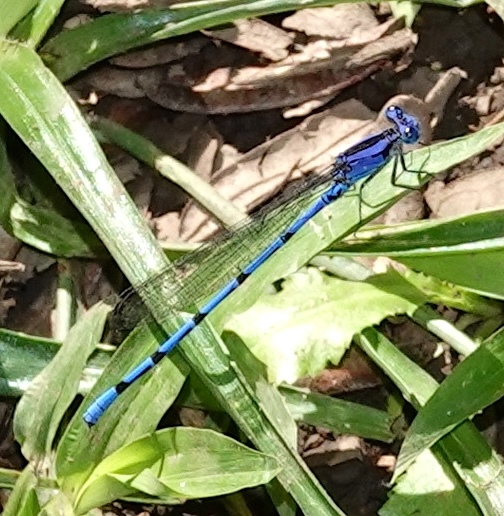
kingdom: Animalia
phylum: Arthropoda
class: Insecta
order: Odonata
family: Coenagrionidae
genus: Argia
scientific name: Argia elongata
